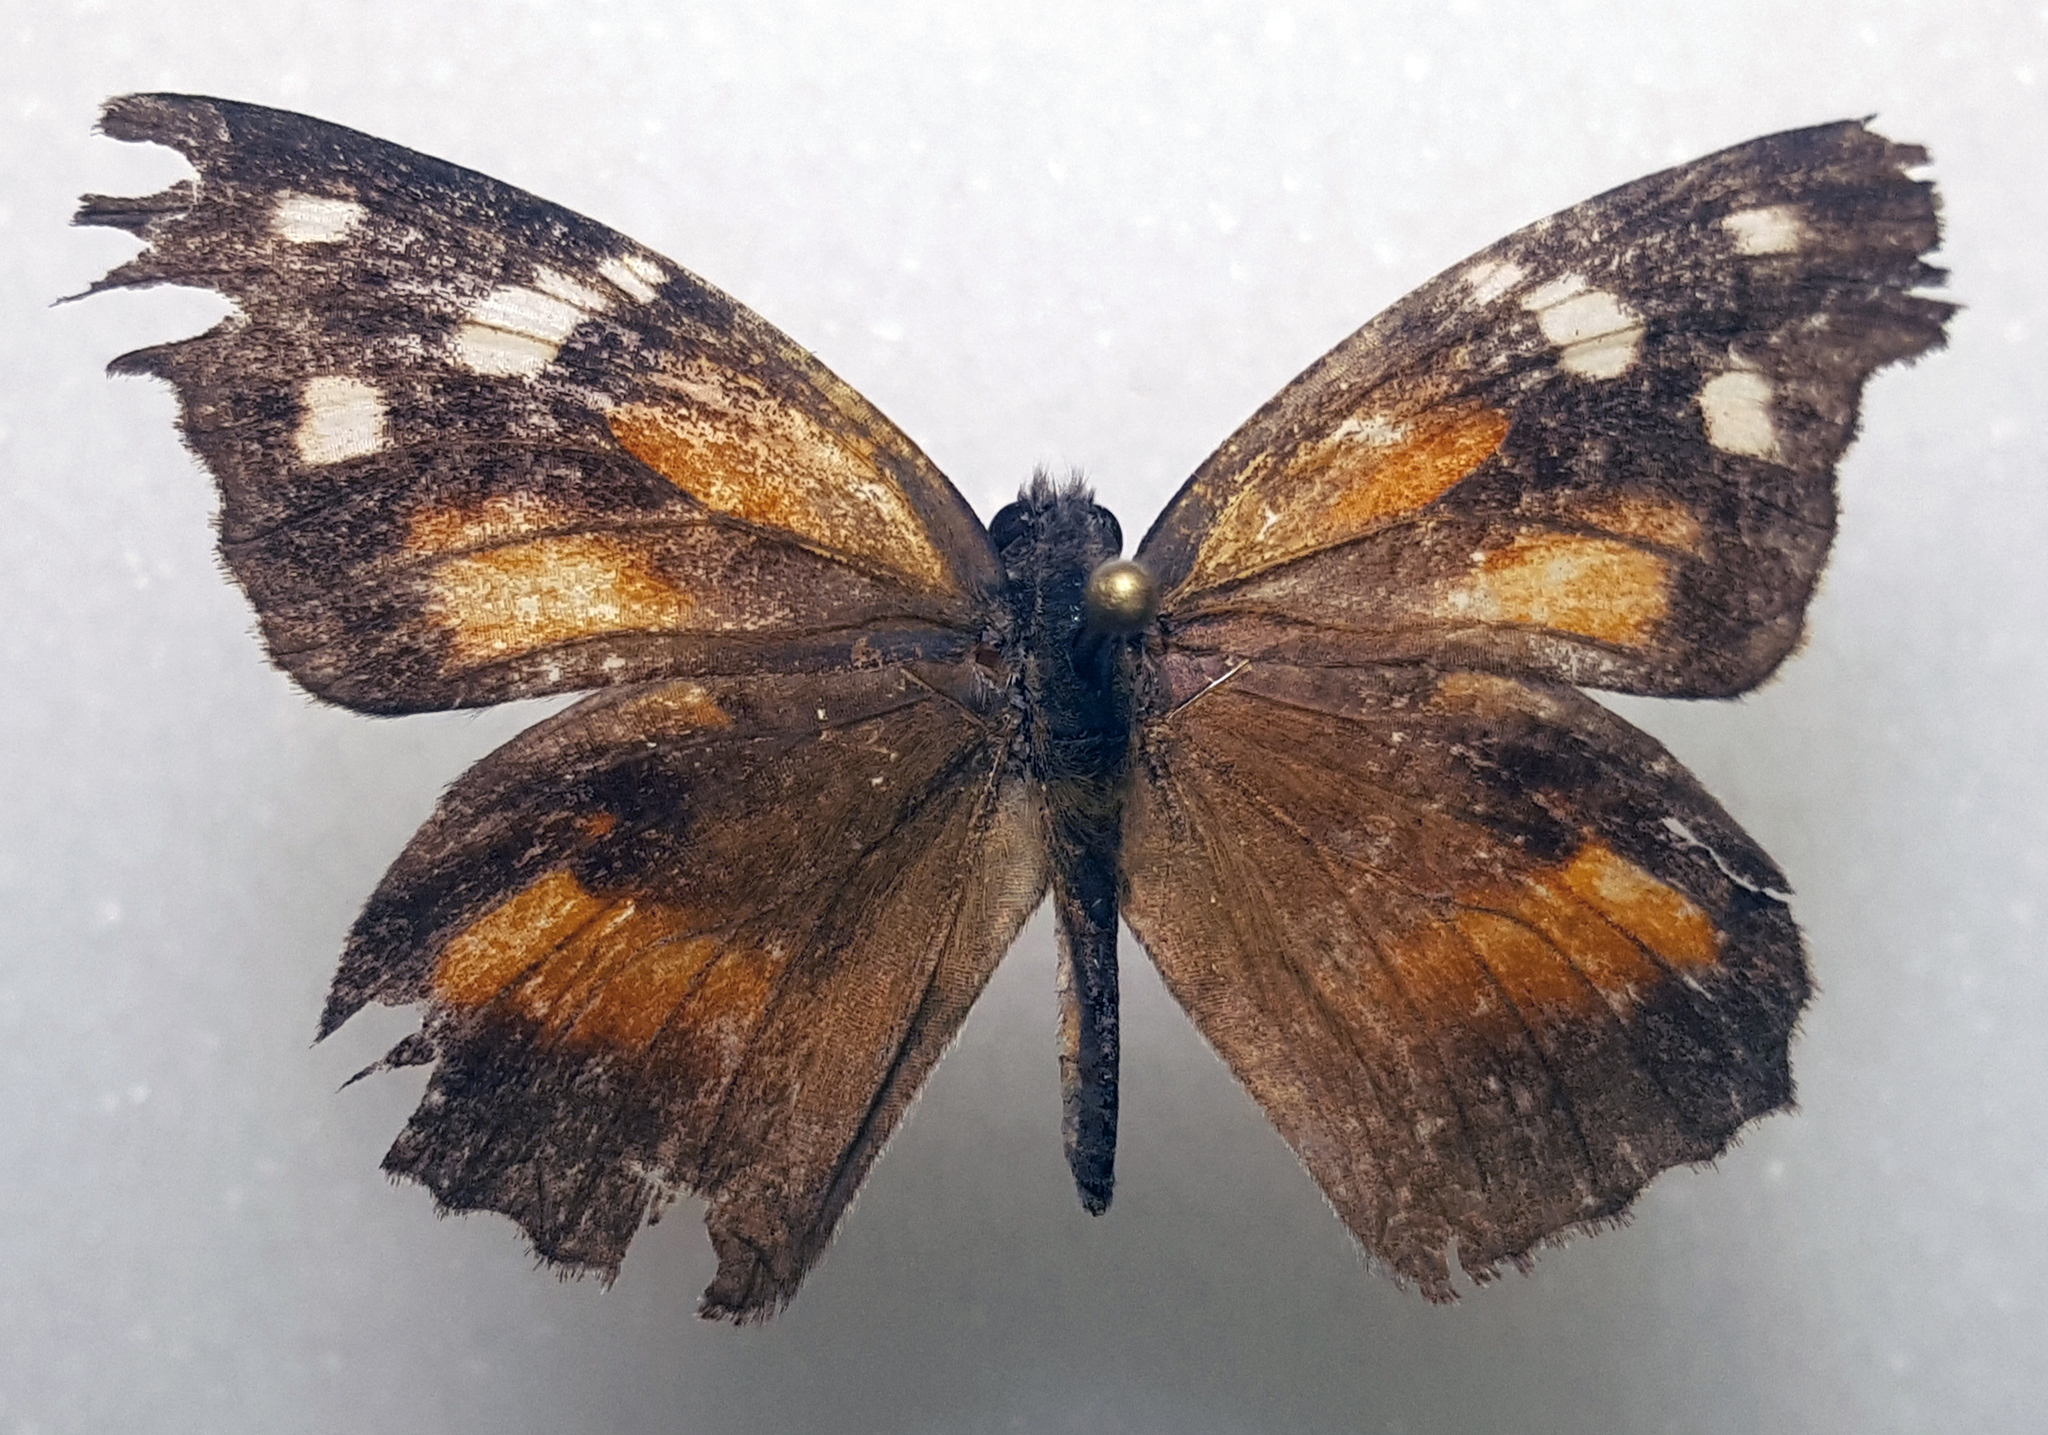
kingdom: Animalia
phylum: Arthropoda
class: Insecta
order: Lepidoptera
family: Nymphalidae
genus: Libytheana
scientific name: Libytheana carinenta
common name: American snout
